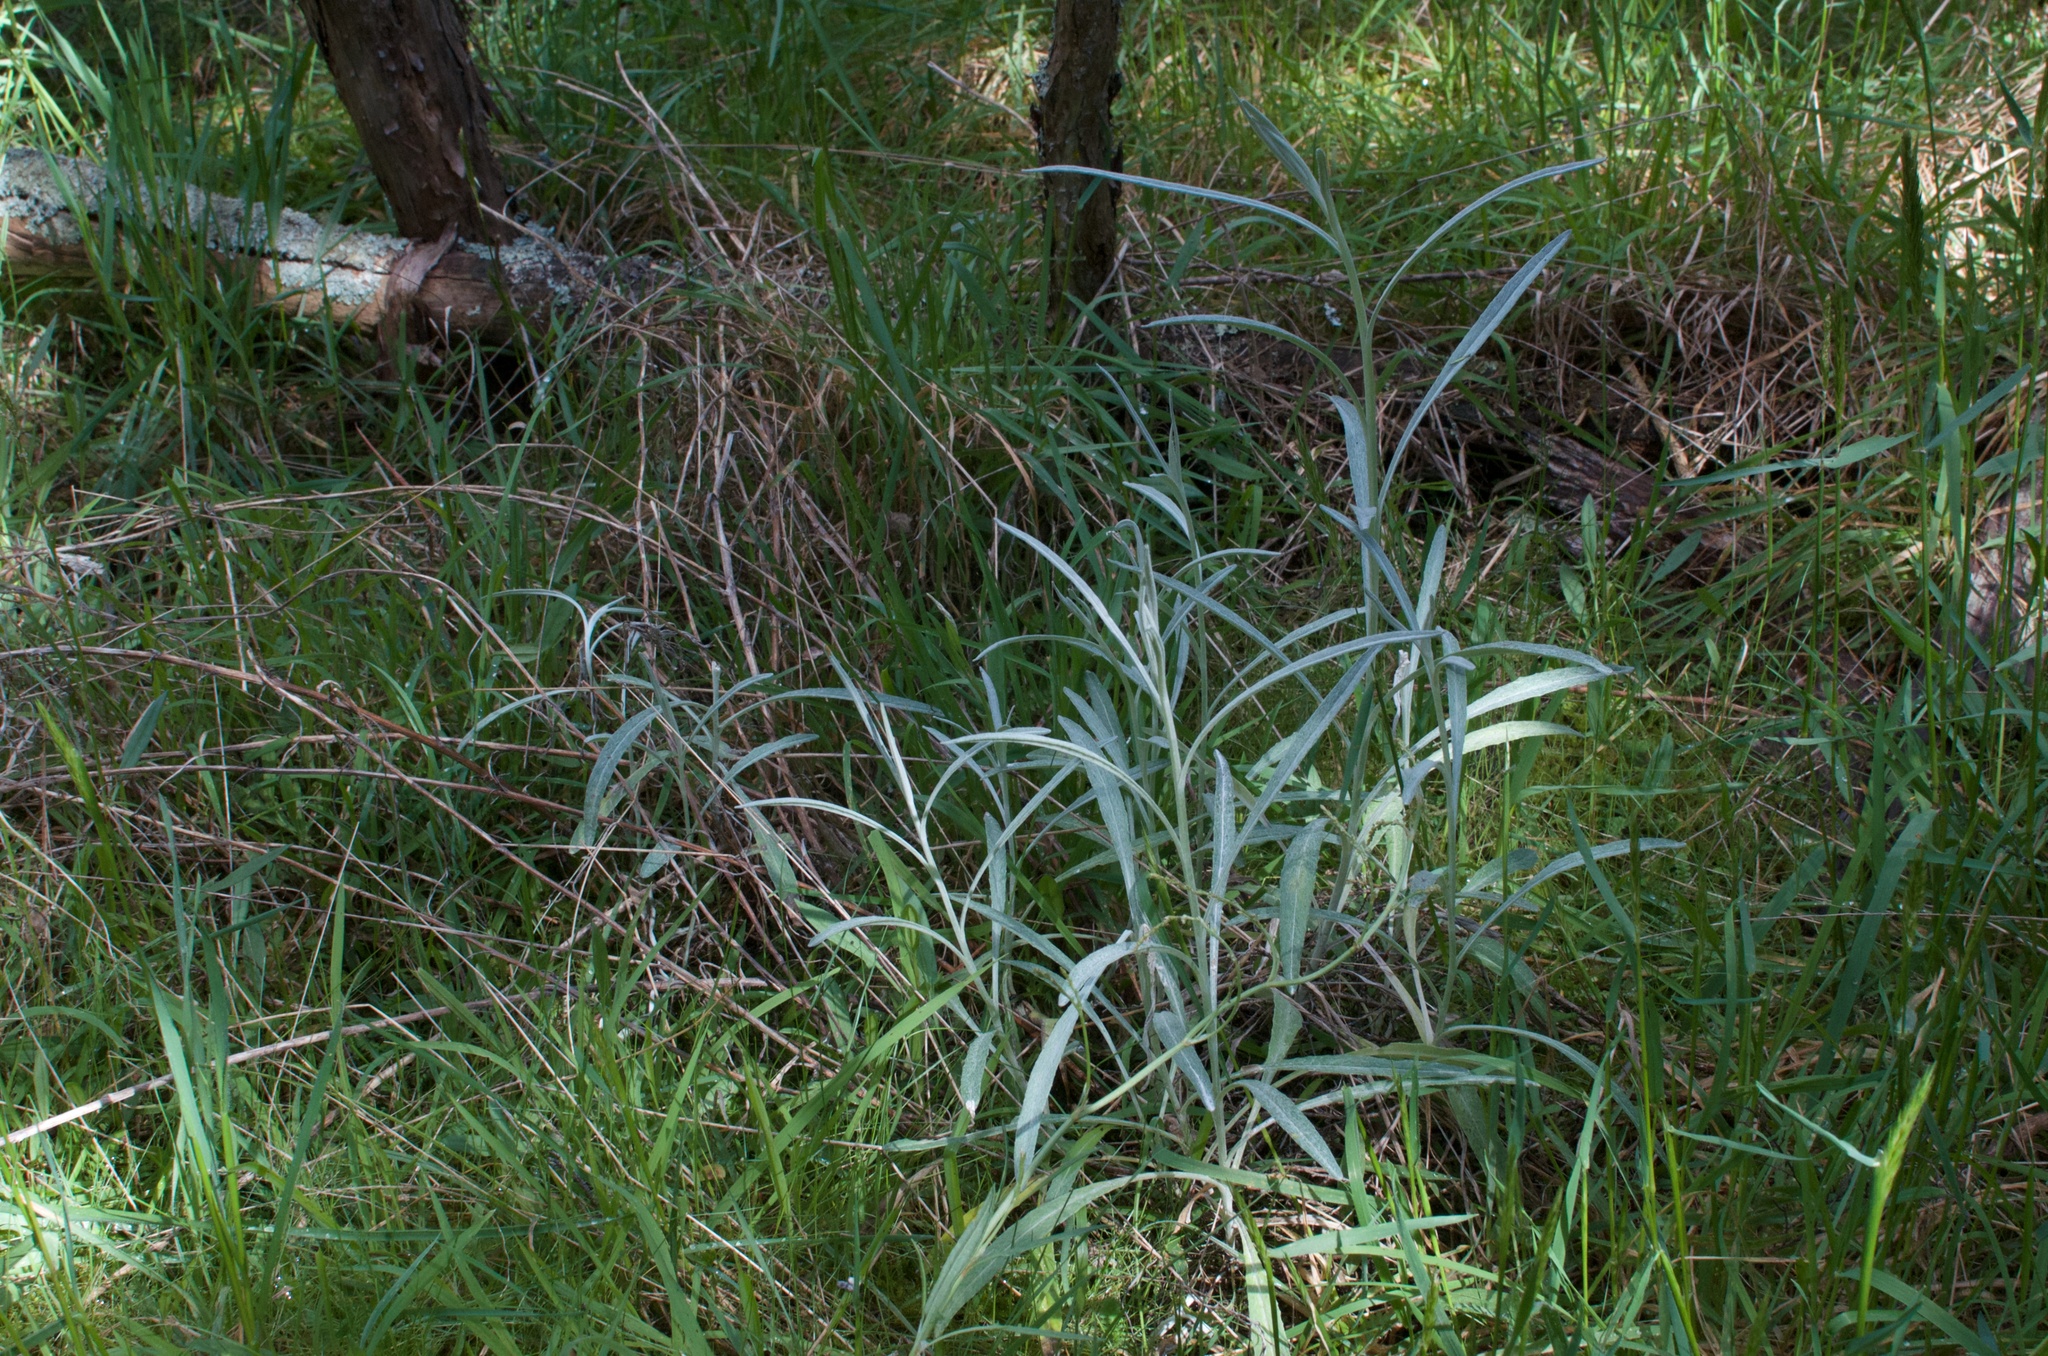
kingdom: Plantae
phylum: Tracheophyta
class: Magnoliopsida
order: Asterales
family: Asteraceae
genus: Senecio
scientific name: Senecio quadridentatus
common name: Cotton fireweed
